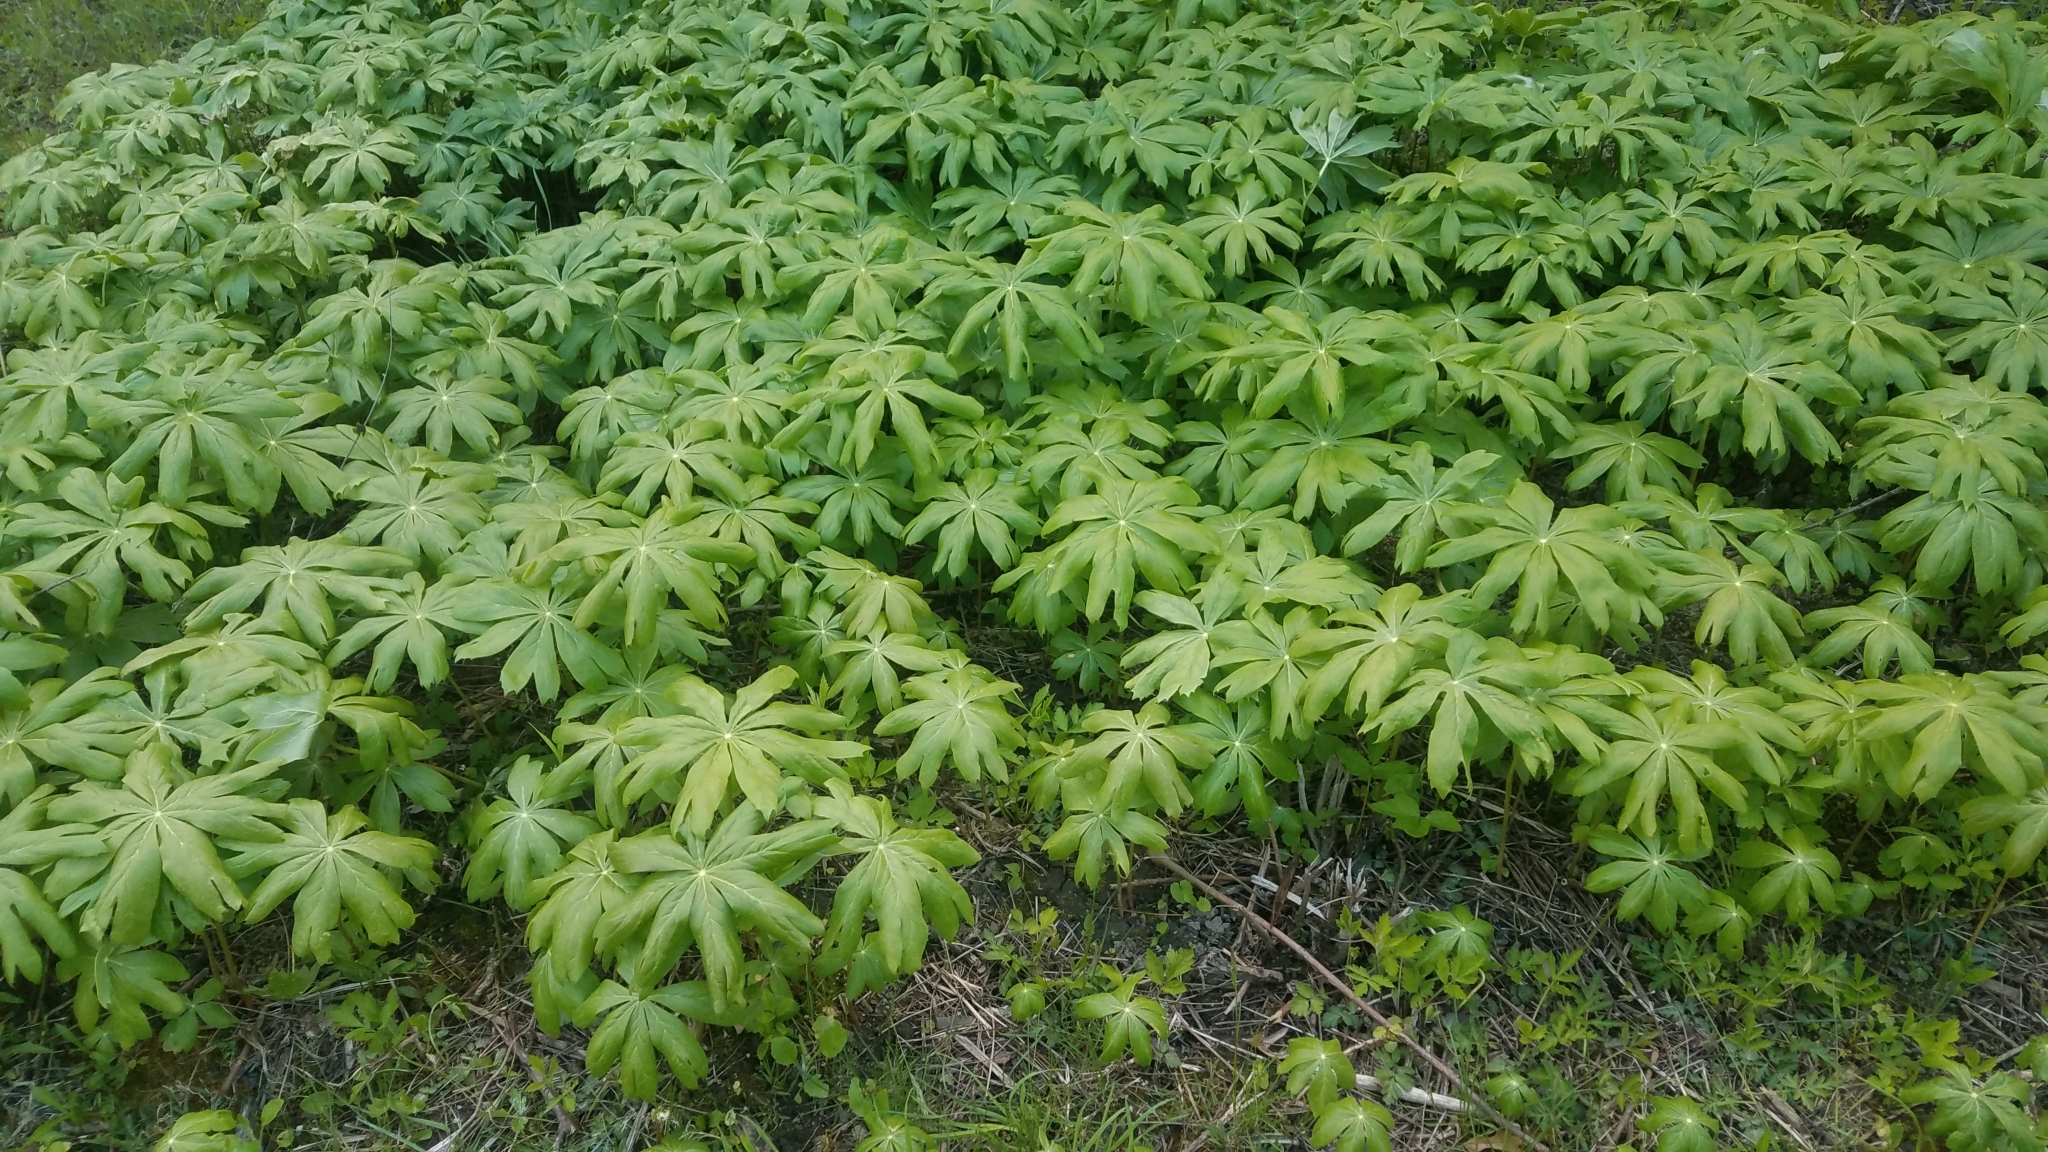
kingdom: Plantae
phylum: Tracheophyta
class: Magnoliopsida
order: Ranunculales
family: Berberidaceae
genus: Podophyllum
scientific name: Podophyllum peltatum
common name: Wild mandrake
